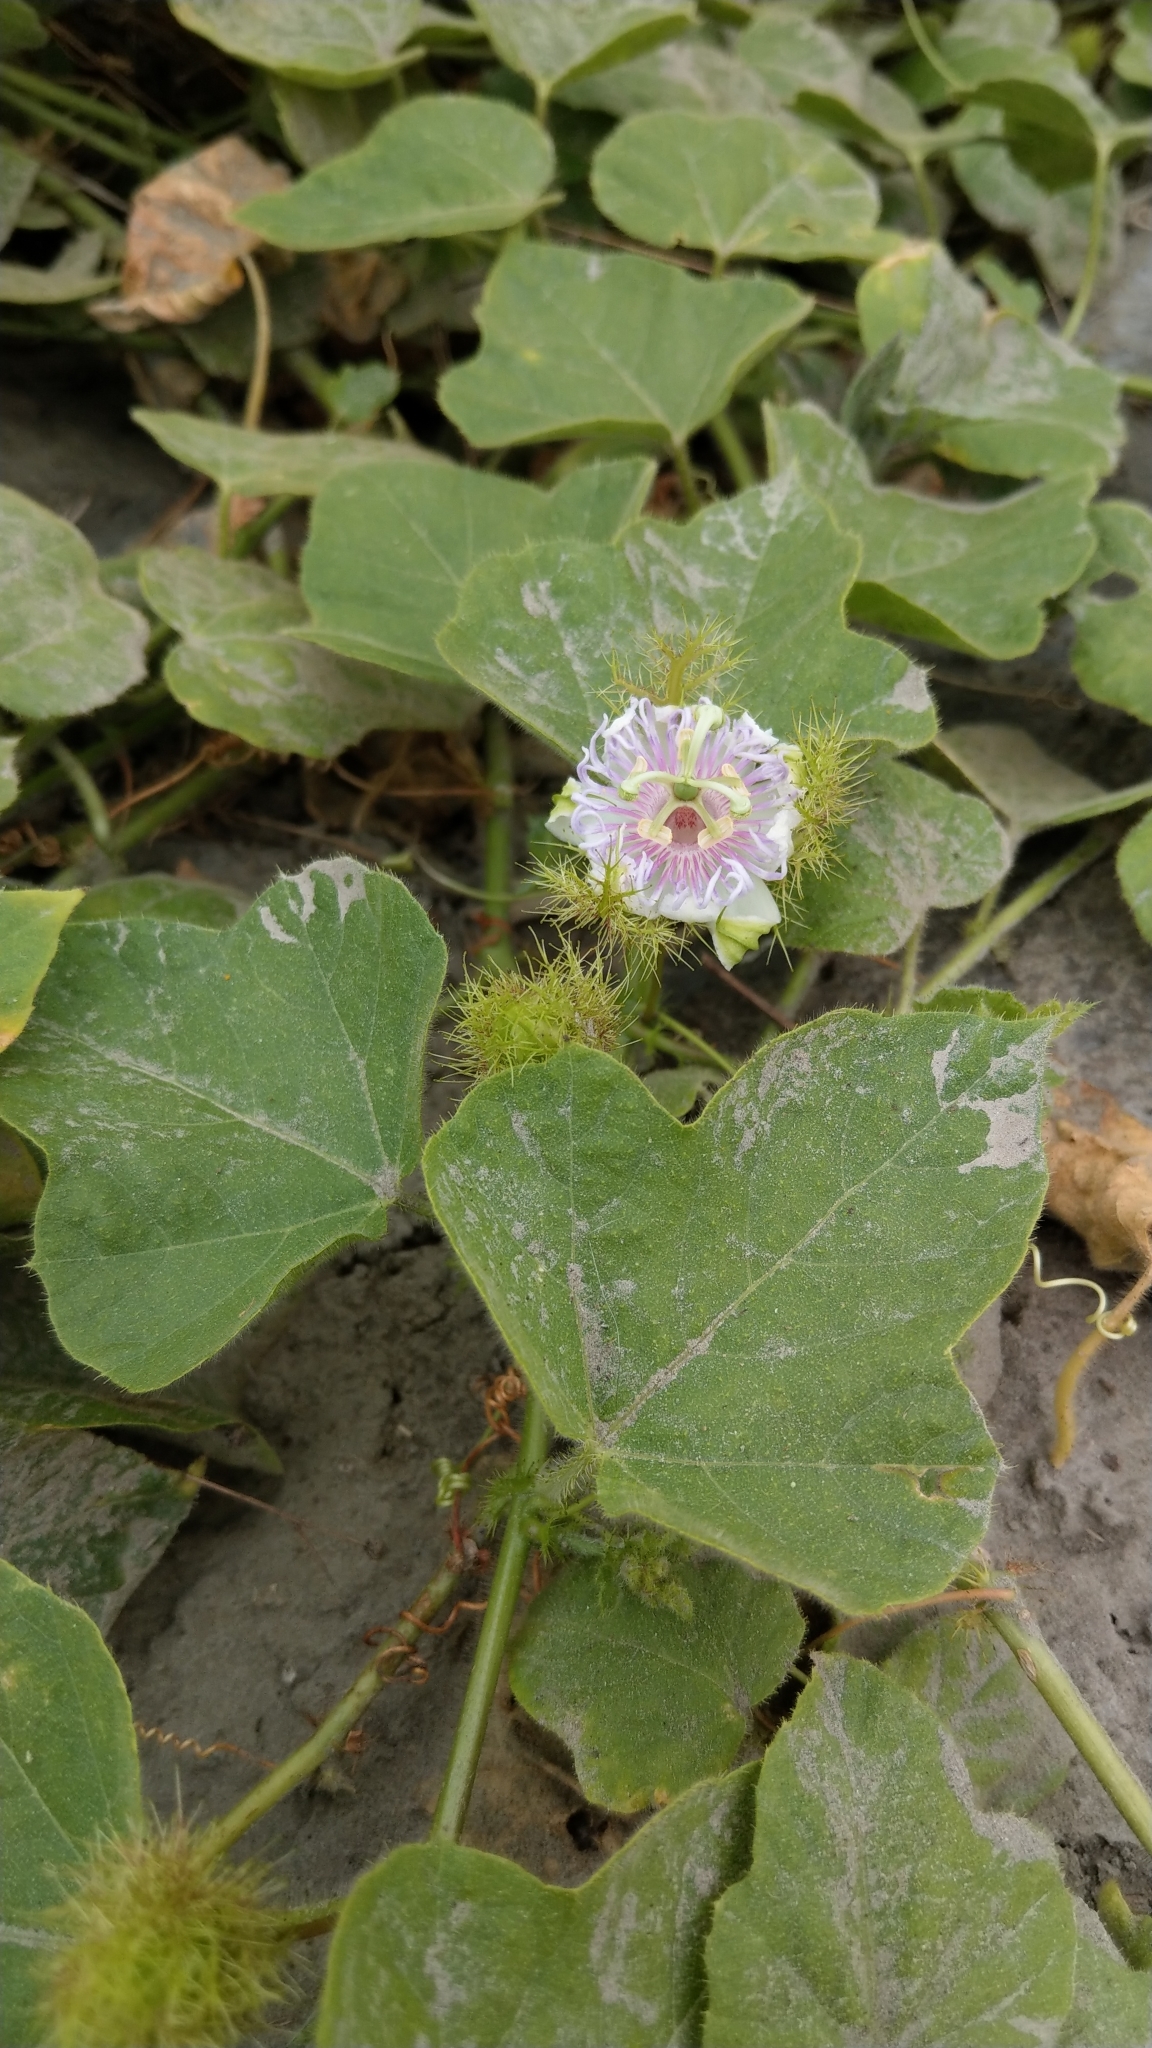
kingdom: Plantae
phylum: Tracheophyta
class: Magnoliopsida
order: Malpighiales
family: Passifloraceae
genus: Passiflora
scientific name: Passiflora vesicaria
